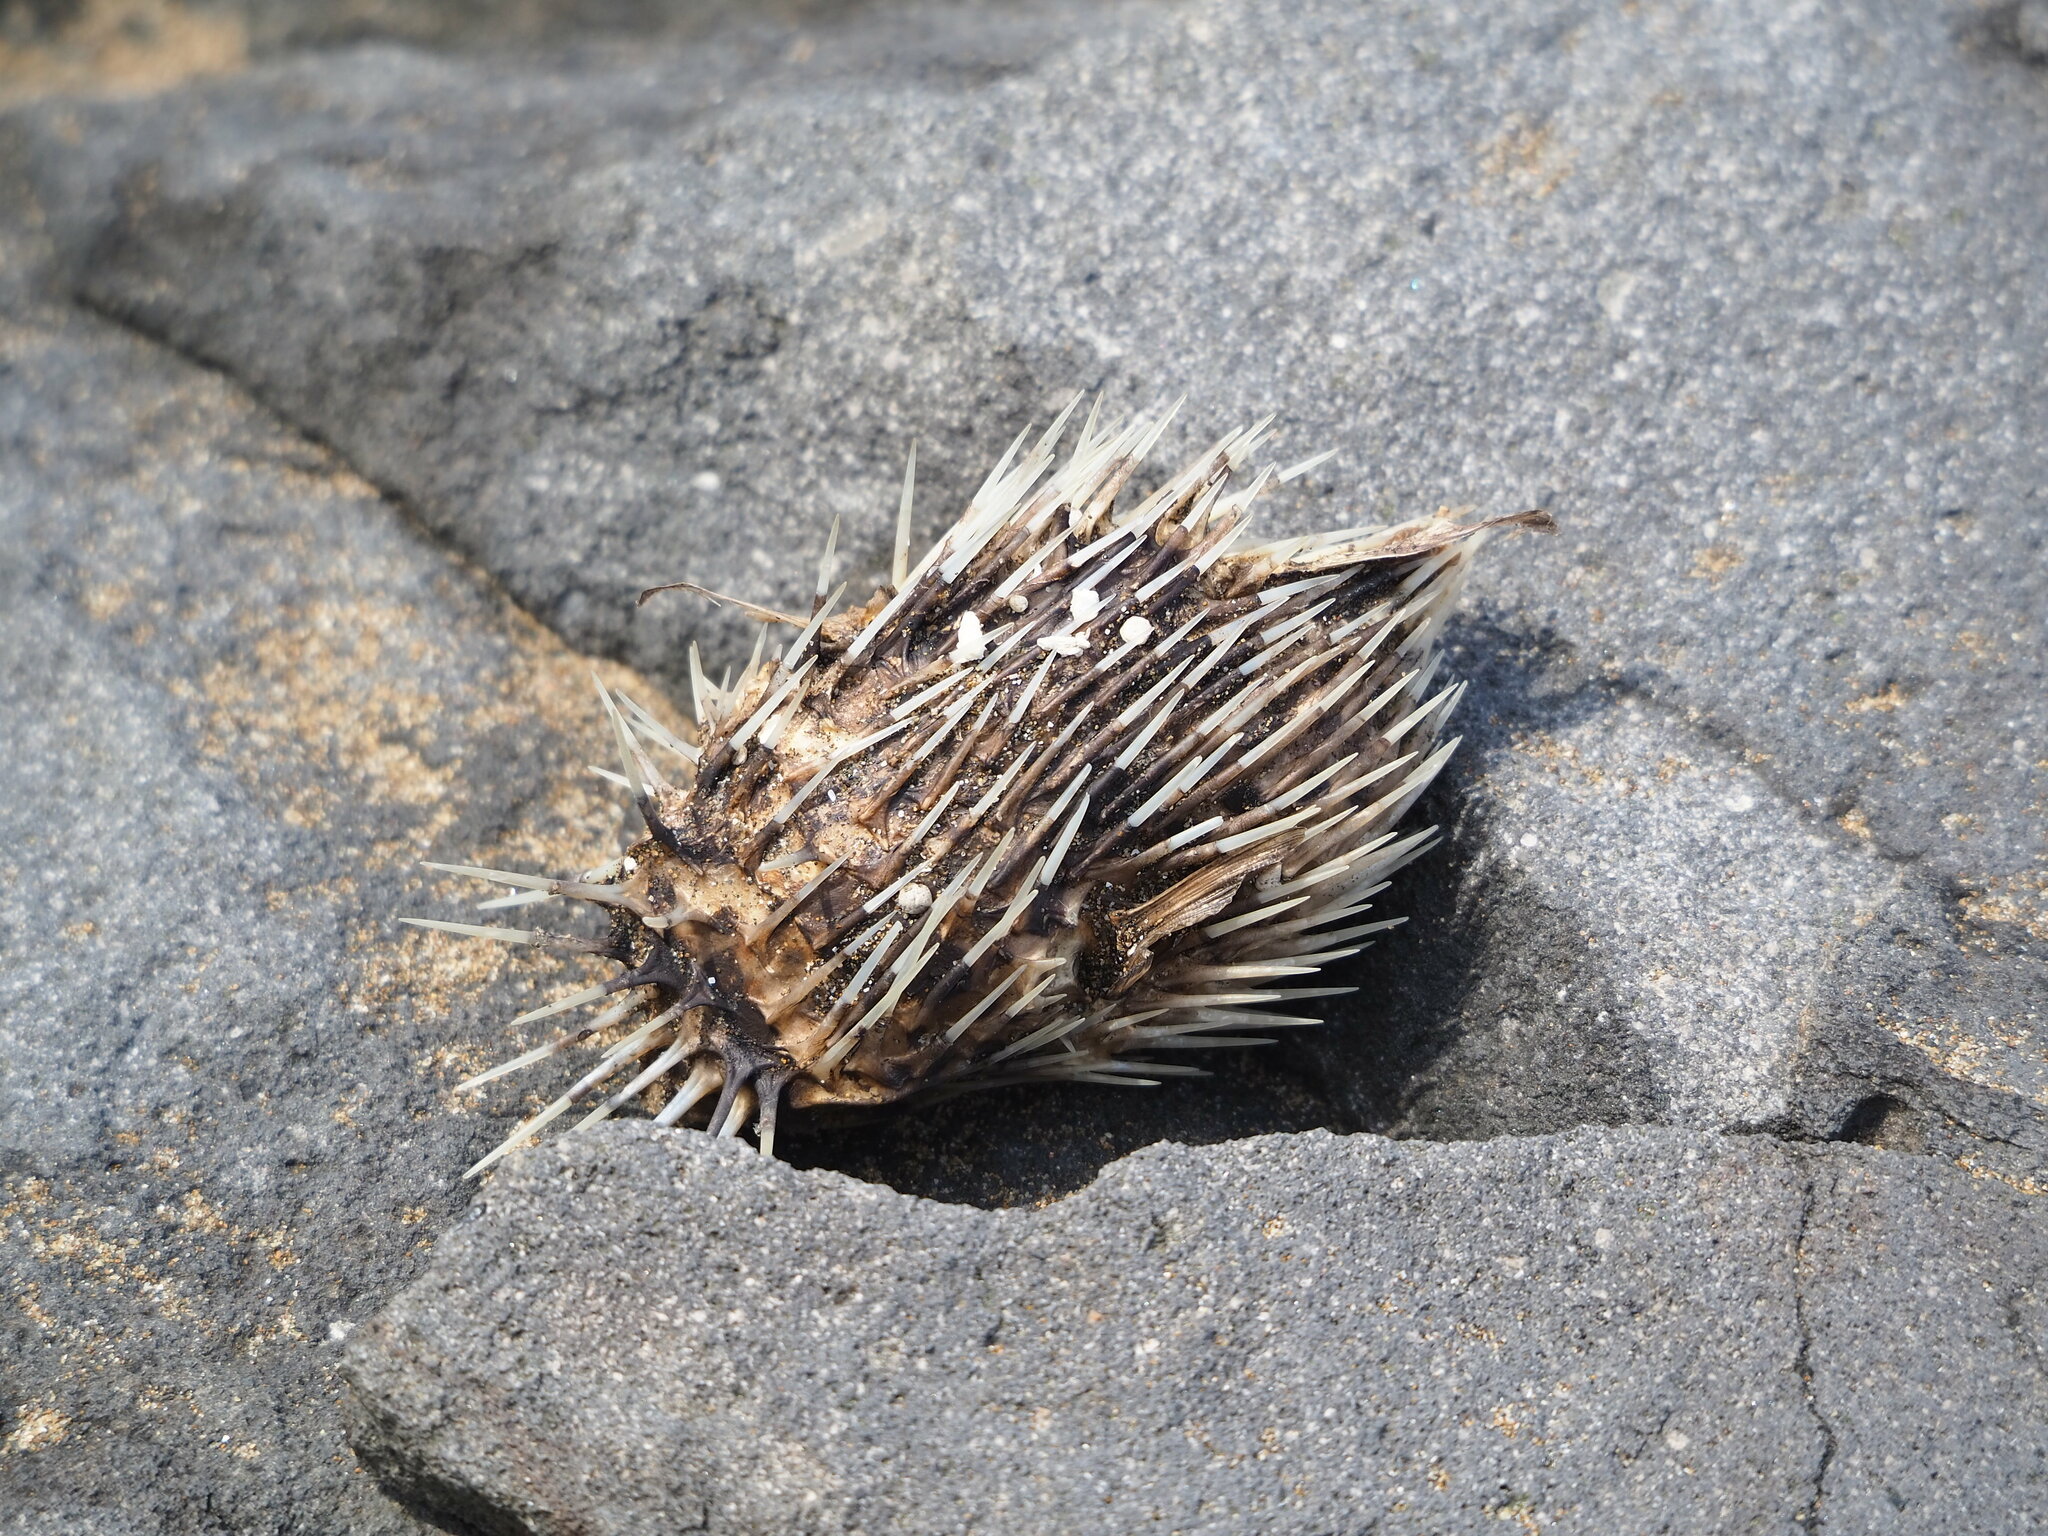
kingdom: Animalia
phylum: Chordata
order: Tetraodontiformes
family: Diodontidae
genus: Diodon
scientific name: Diodon holocanthus
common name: Balloonfish
